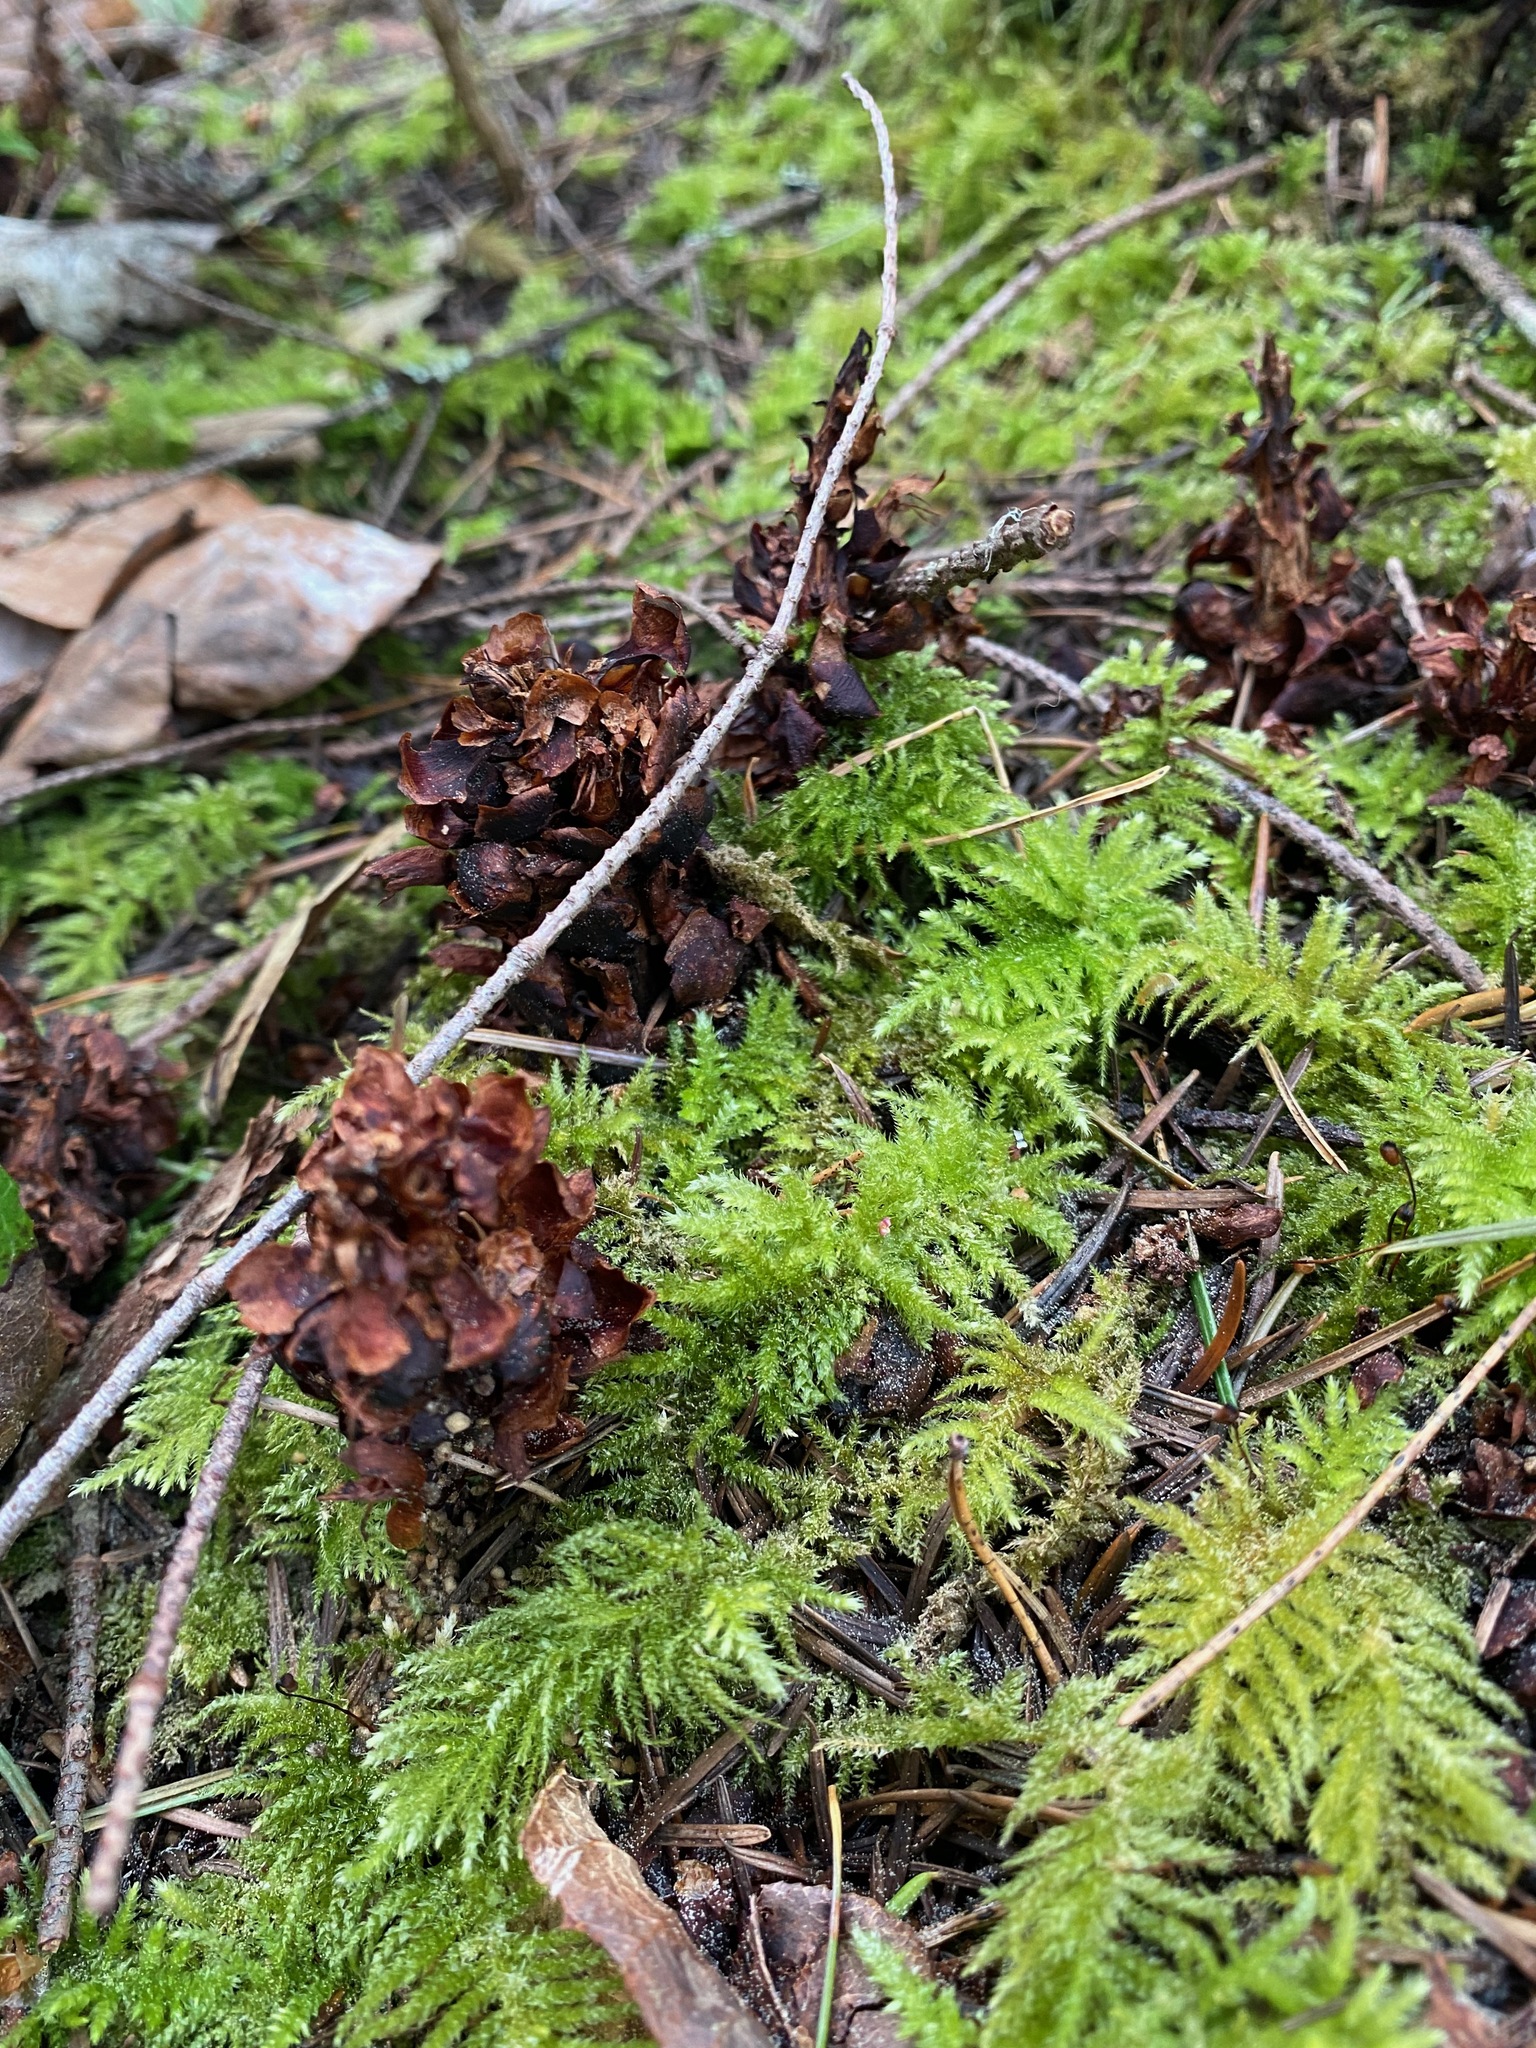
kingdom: Plantae
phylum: Tracheophyta
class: Magnoliopsida
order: Lamiales
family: Orobanchaceae
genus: Kopsiopsis
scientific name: Kopsiopsis hookeri
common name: Hooker's groundcone
